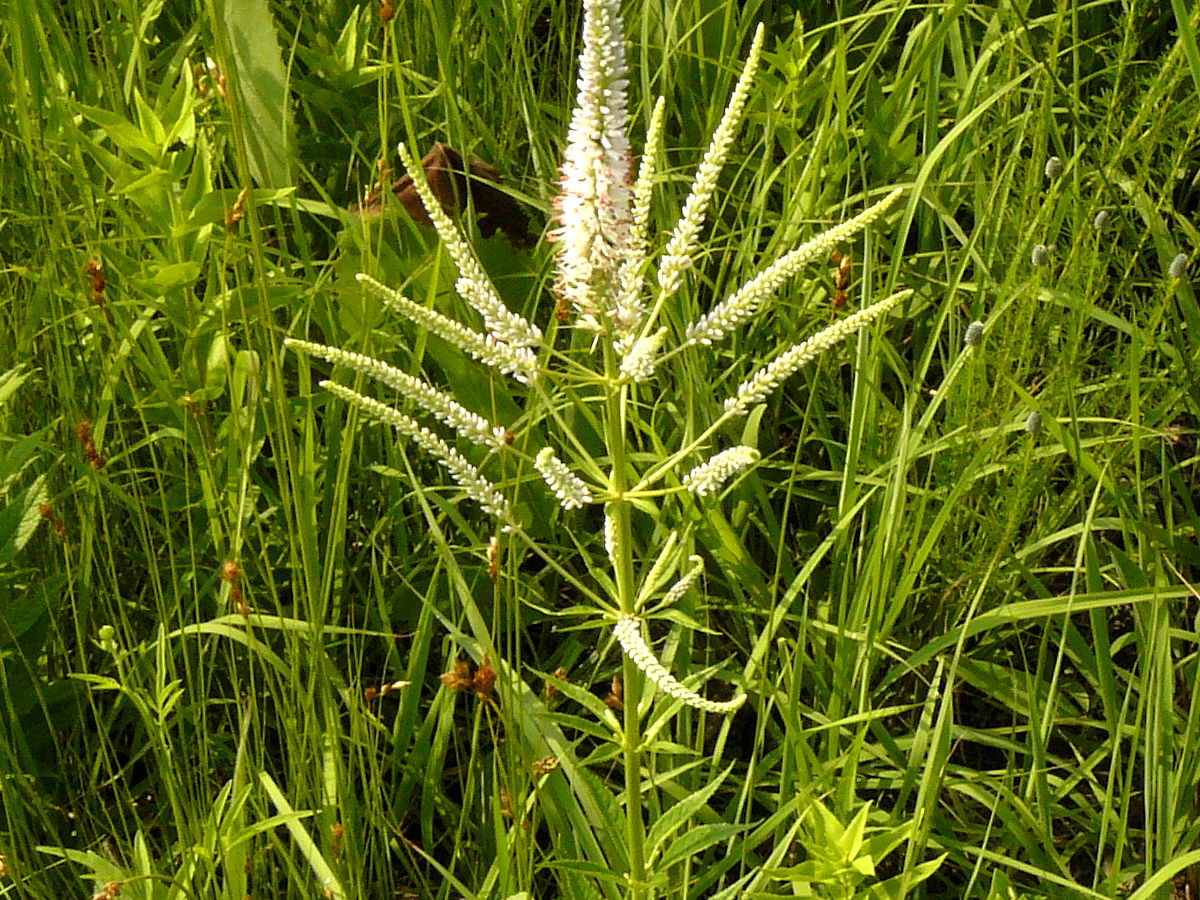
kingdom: Plantae
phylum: Tracheophyta
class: Magnoliopsida
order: Lamiales
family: Plantaginaceae
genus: Veronicastrum
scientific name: Veronicastrum virginicum
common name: Blackroot
